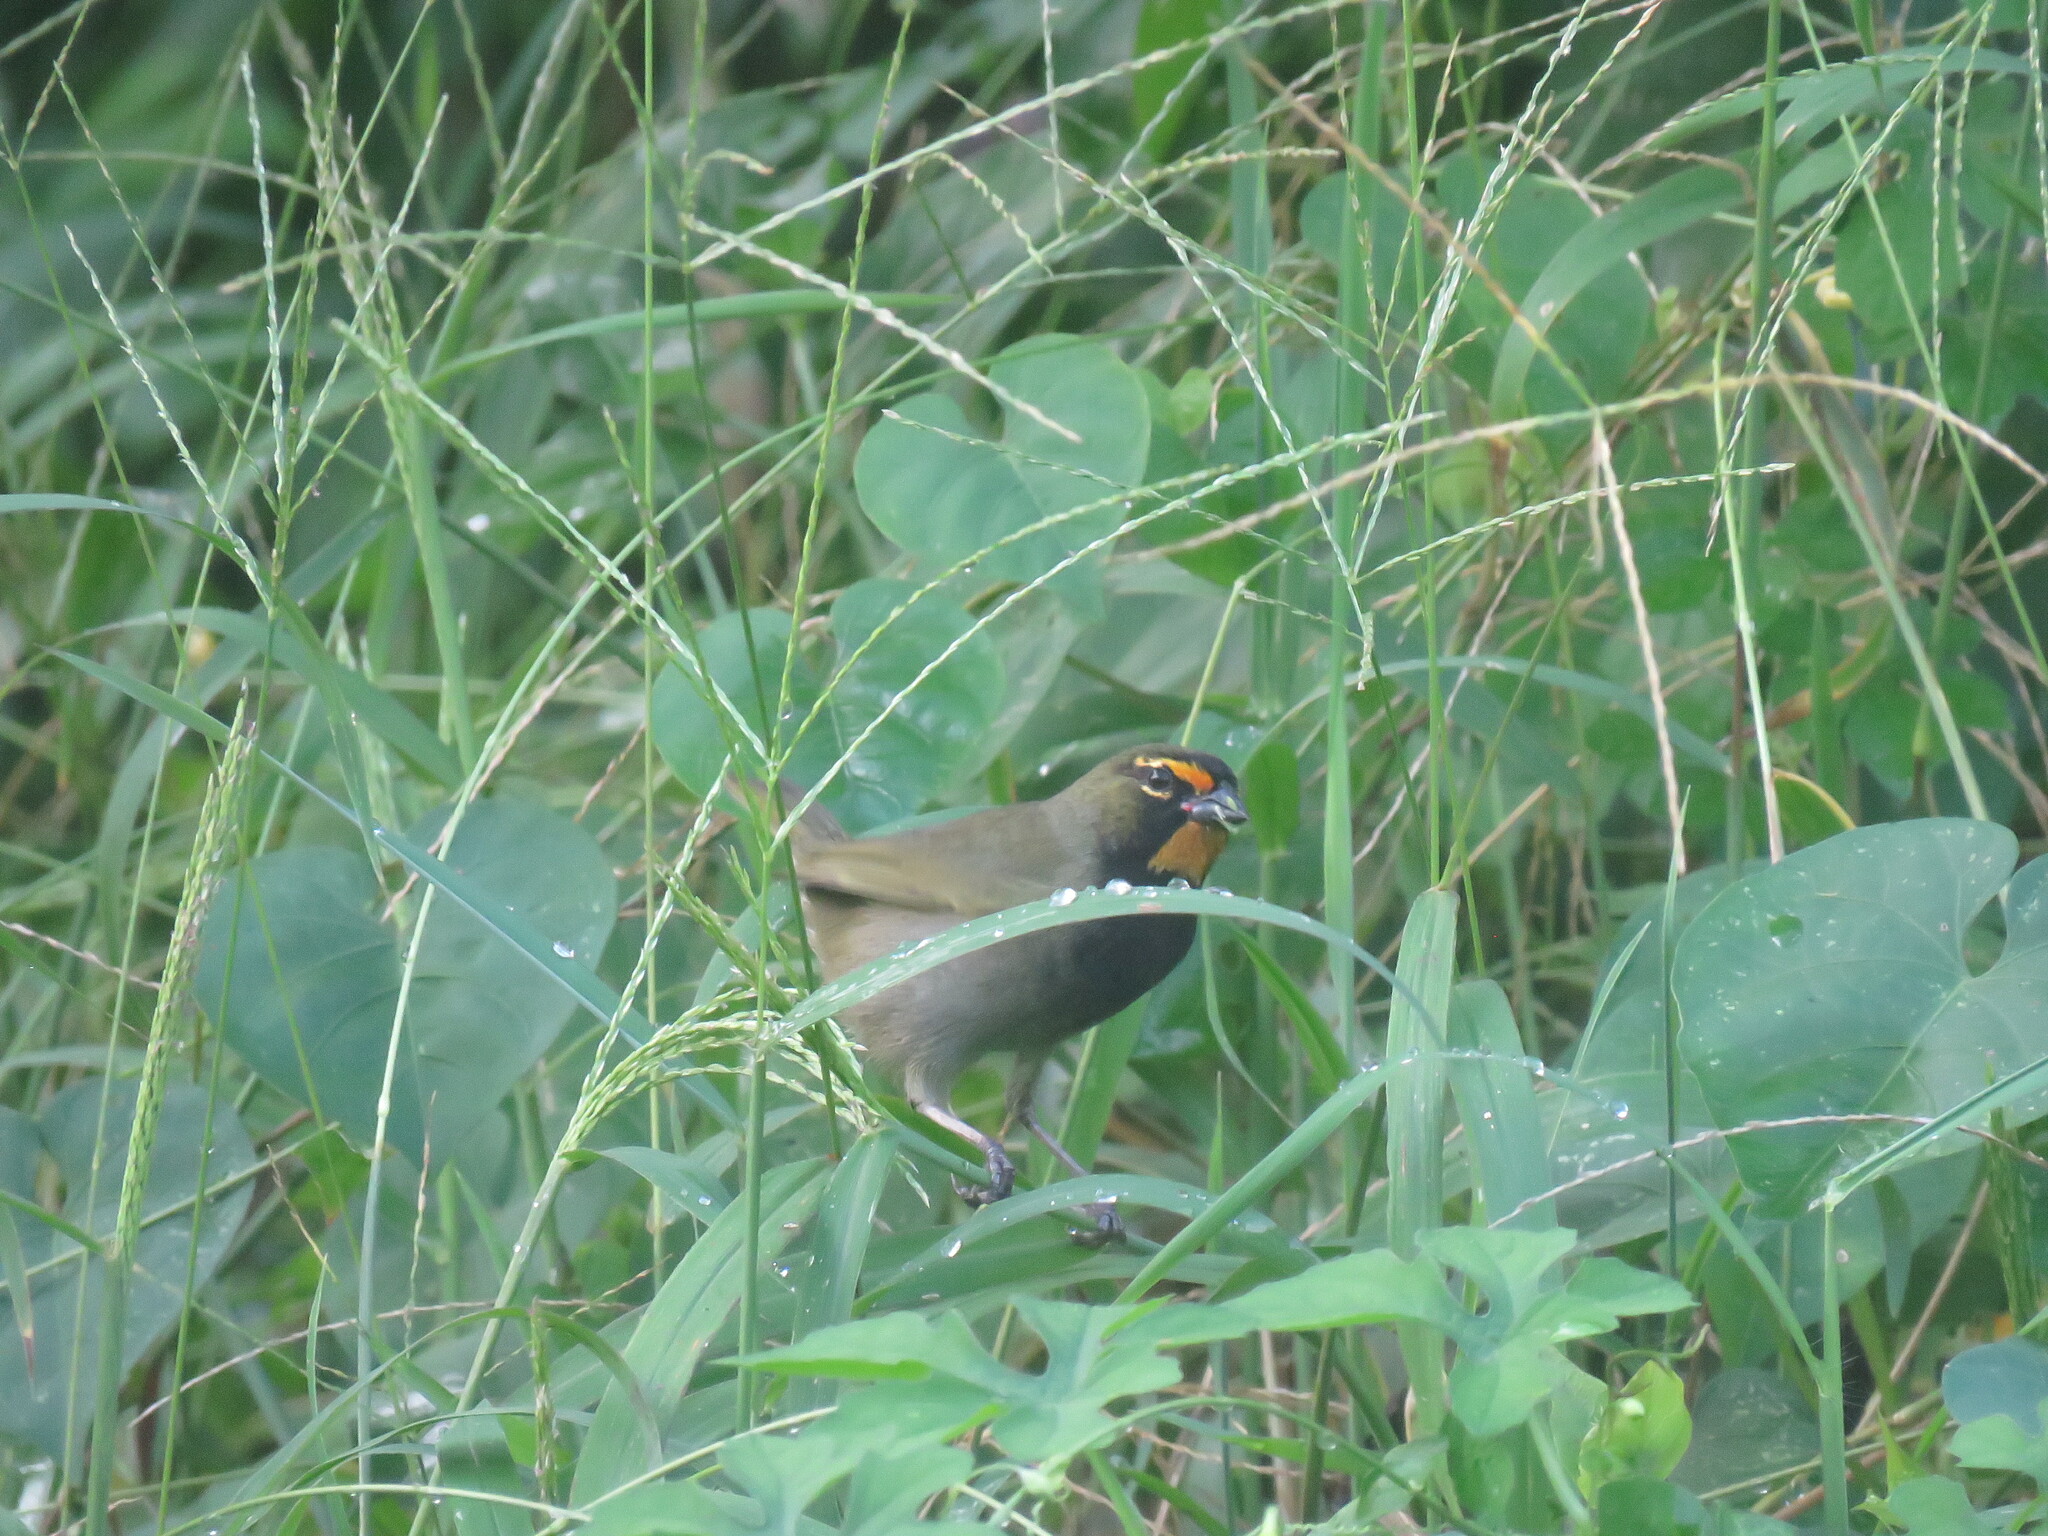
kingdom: Animalia
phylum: Chordata
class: Aves
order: Passeriformes
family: Thraupidae
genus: Tiaris
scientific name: Tiaris olivaceus
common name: Yellow-faced grassquit
